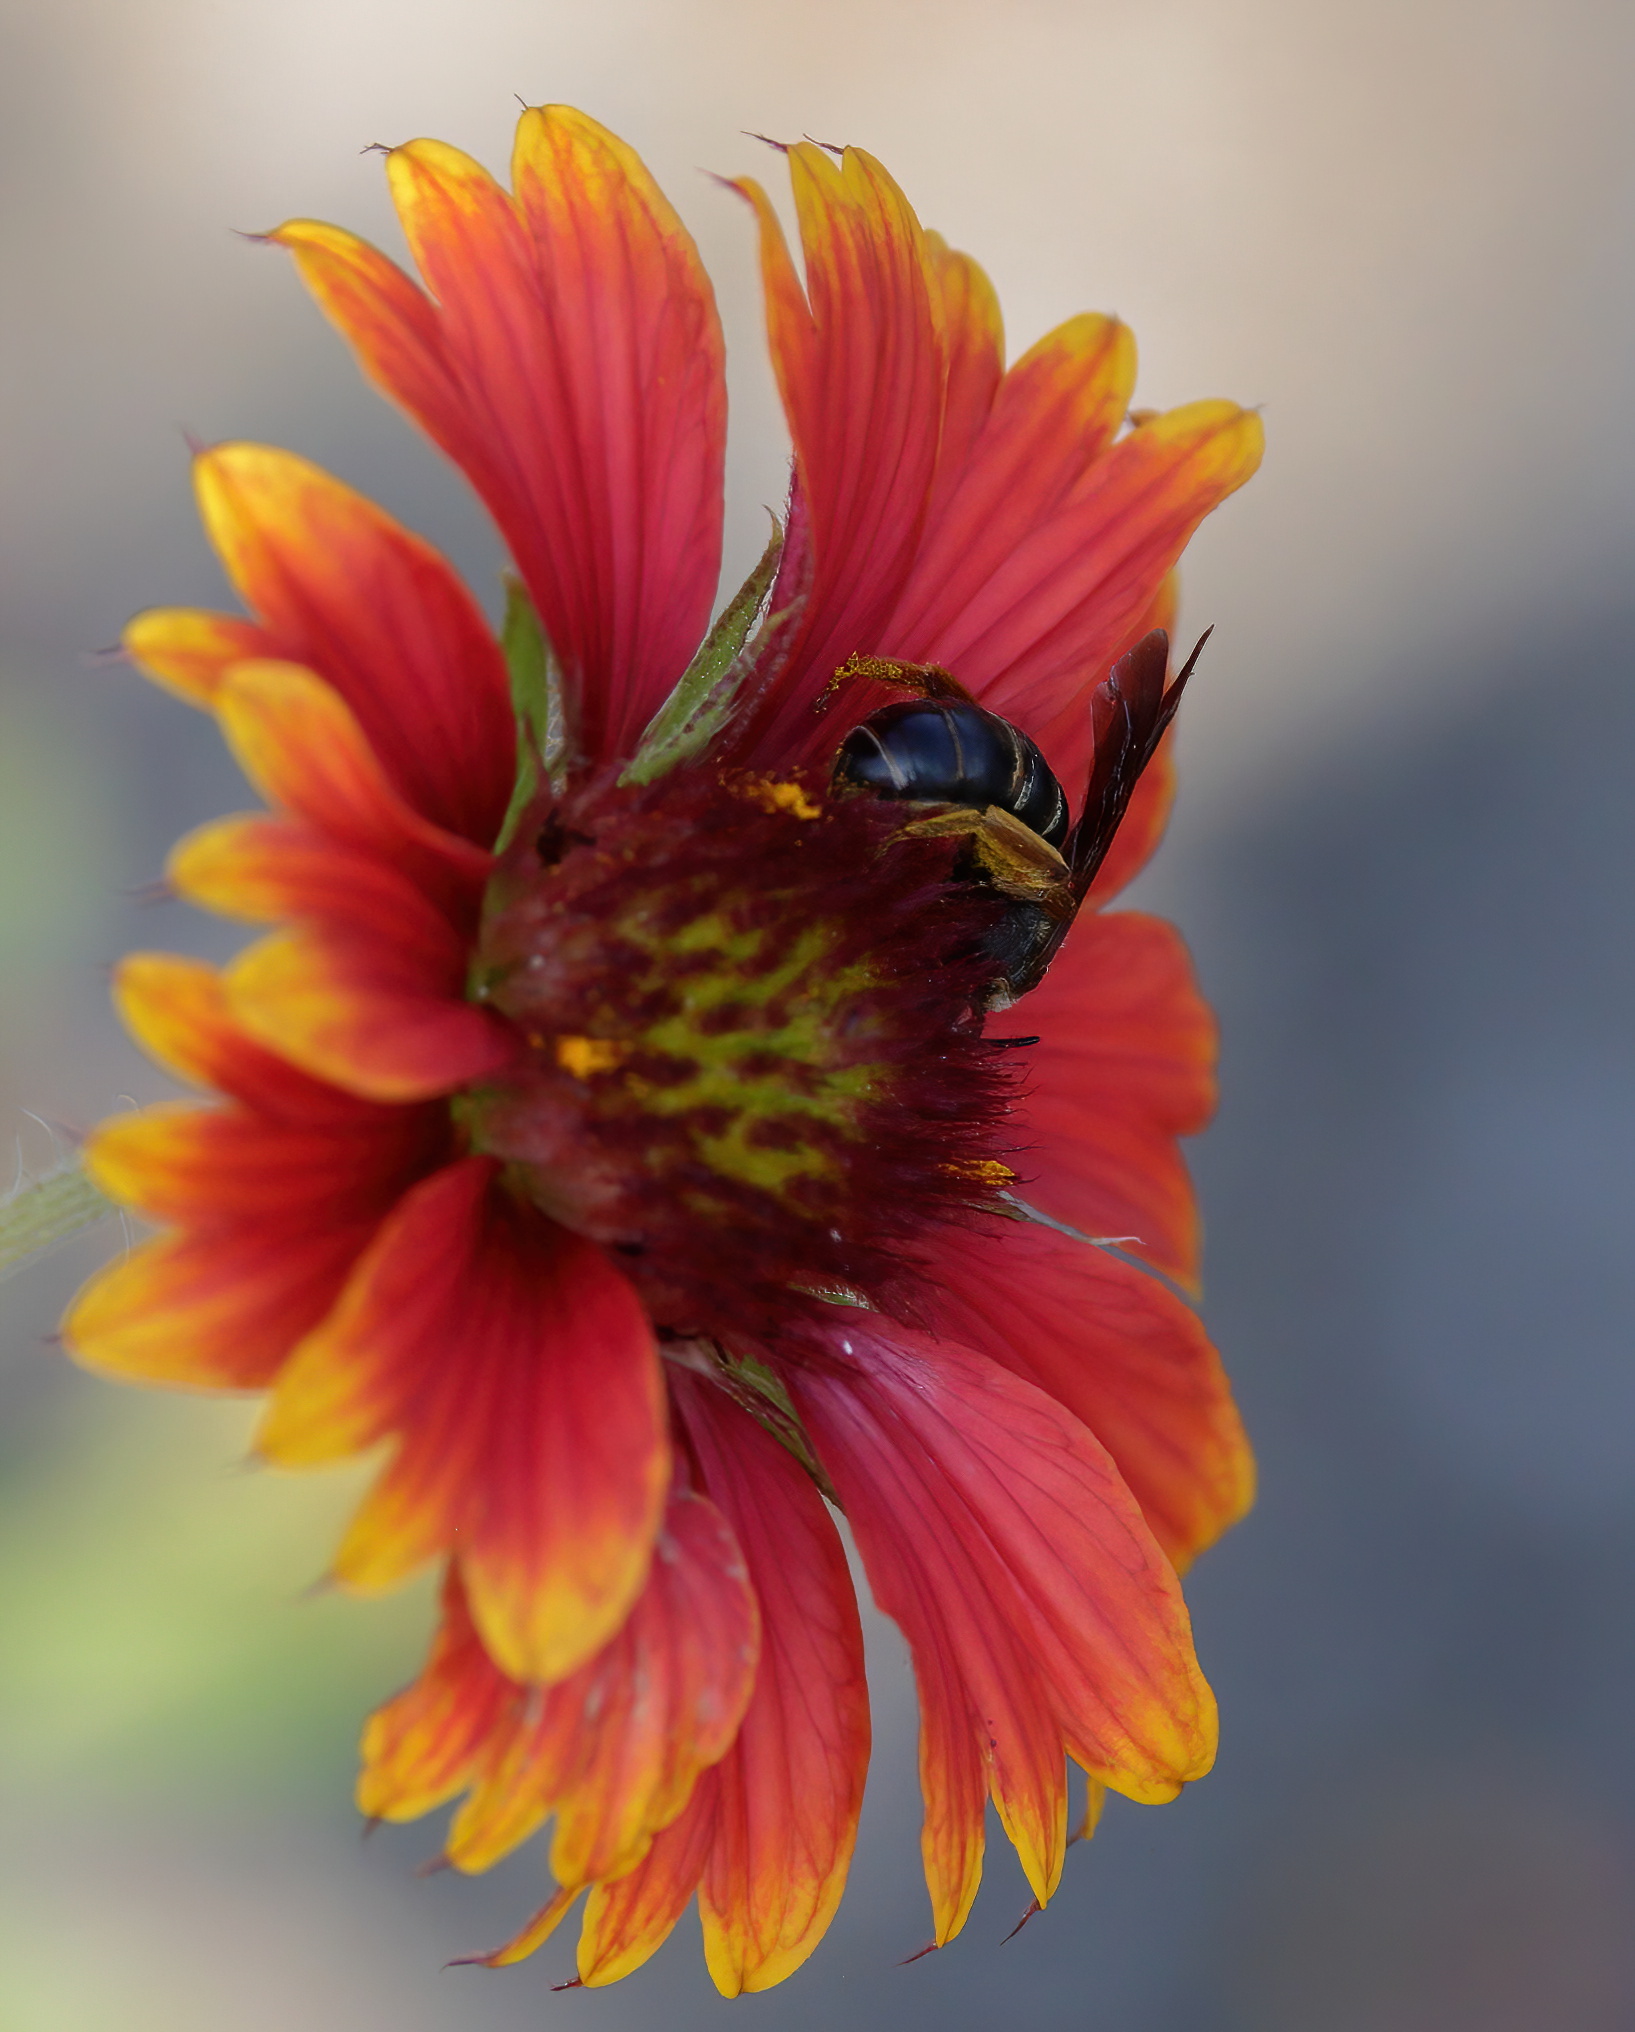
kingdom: Animalia
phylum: Arthropoda
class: Insecta
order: Hymenoptera
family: Halictidae
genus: Halictus
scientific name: Halictus parallelus
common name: Parallel-striped sweat bee
